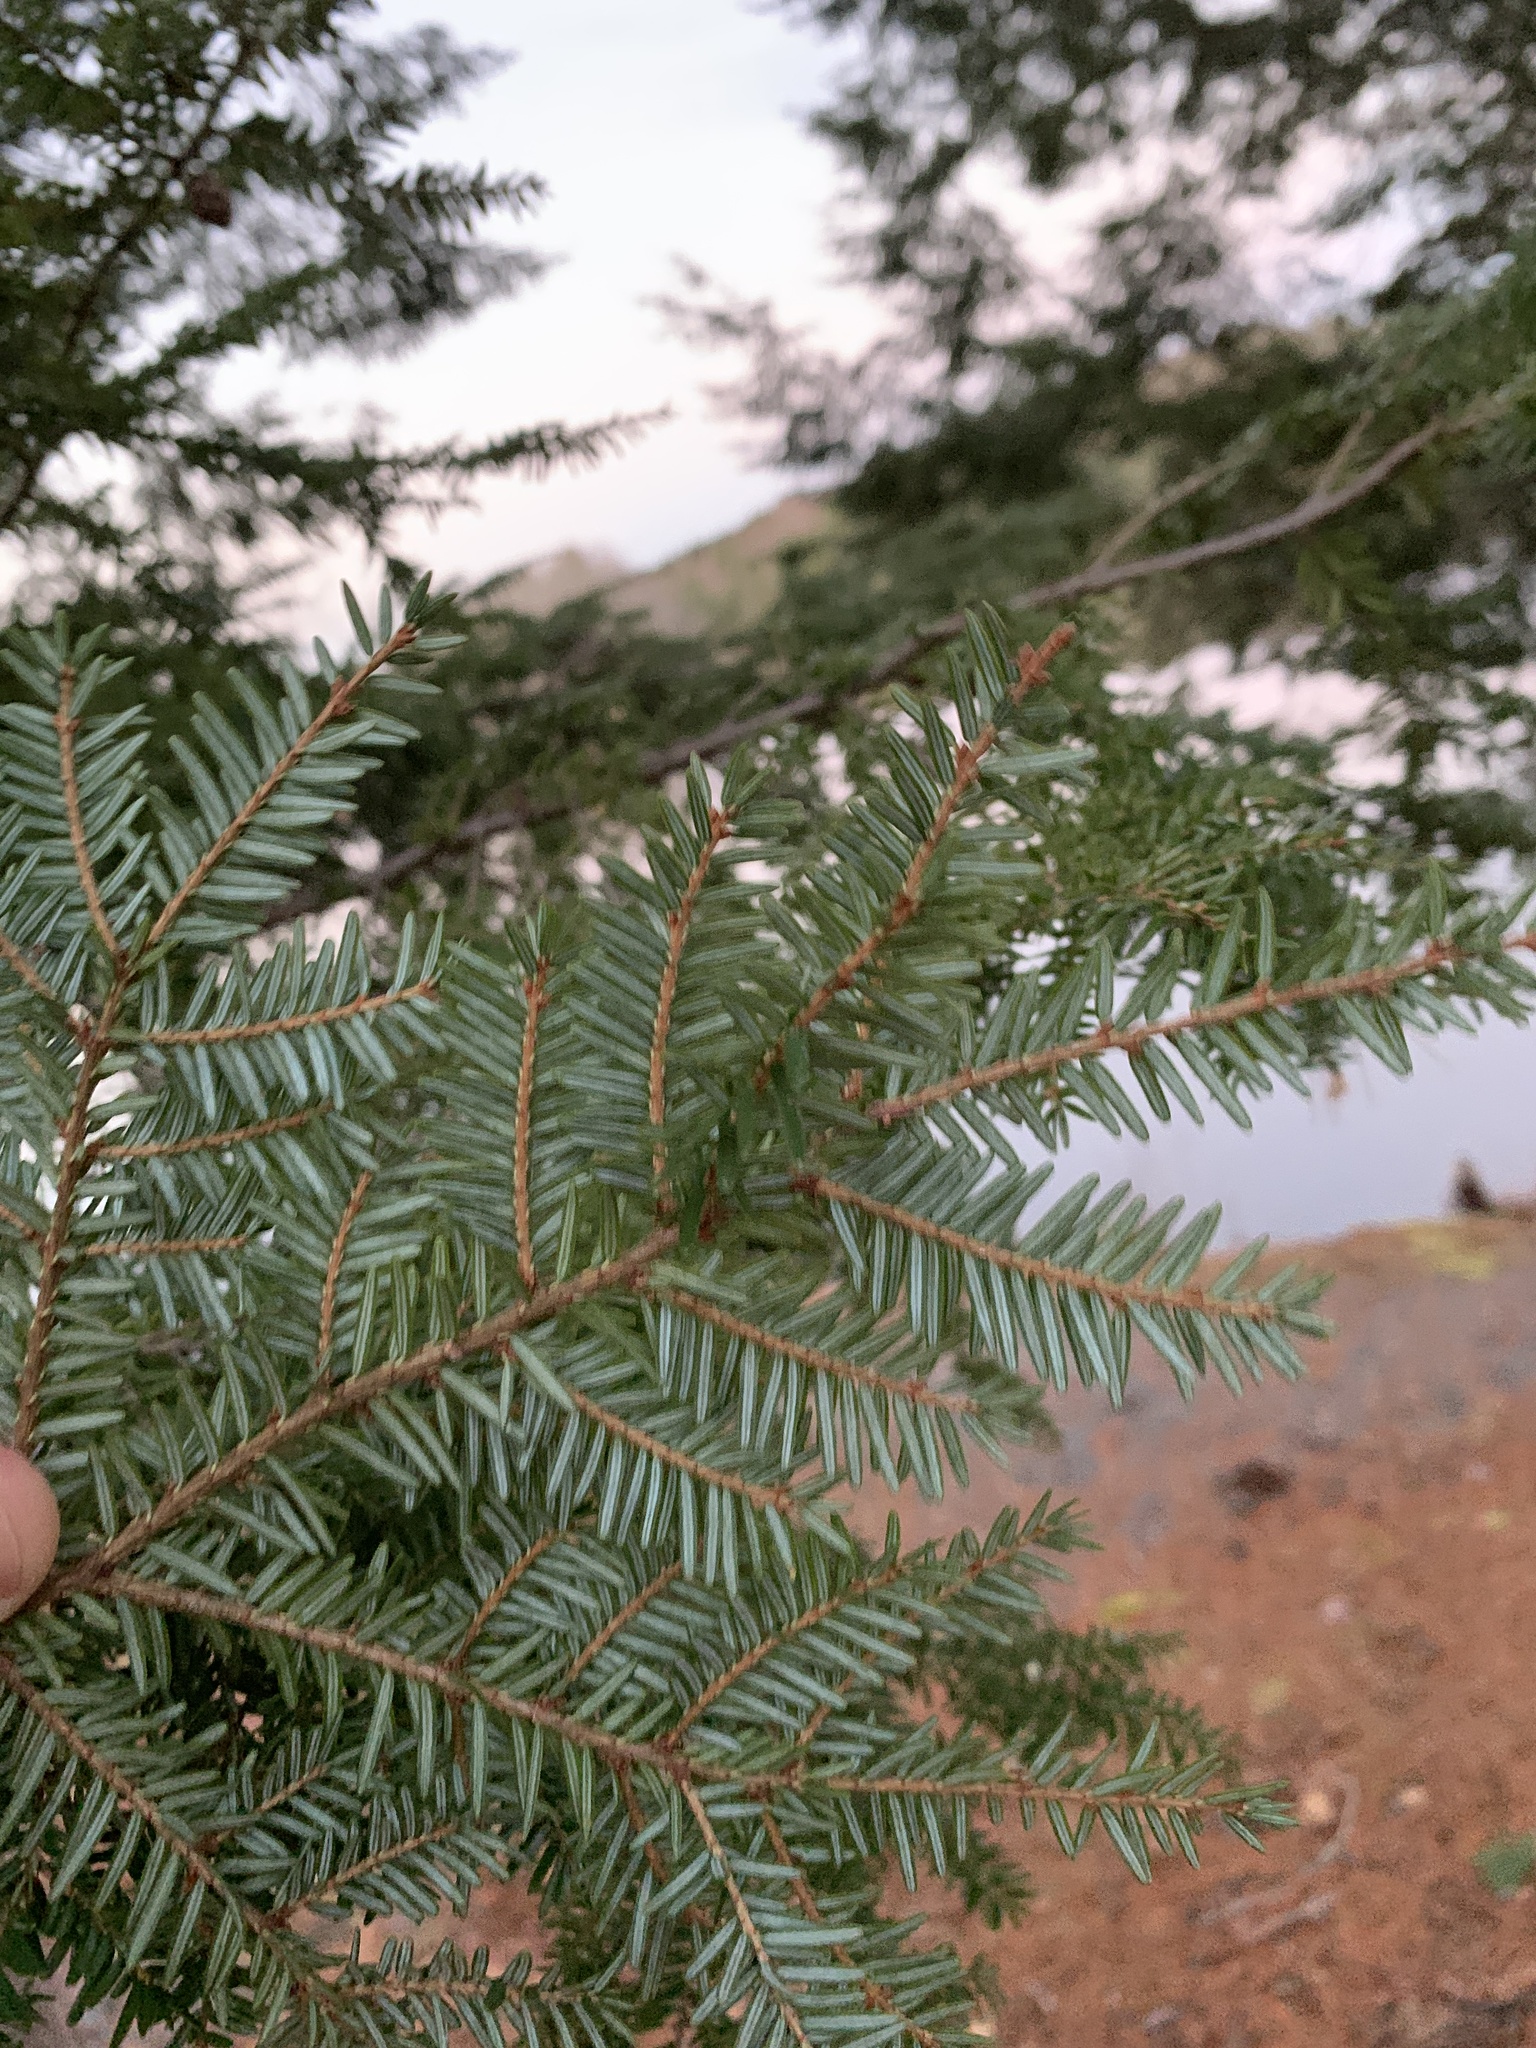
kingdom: Plantae
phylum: Tracheophyta
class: Pinopsida
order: Pinales
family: Pinaceae
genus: Tsuga
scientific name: Tsuga canadensis
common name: Eastern hemlock
